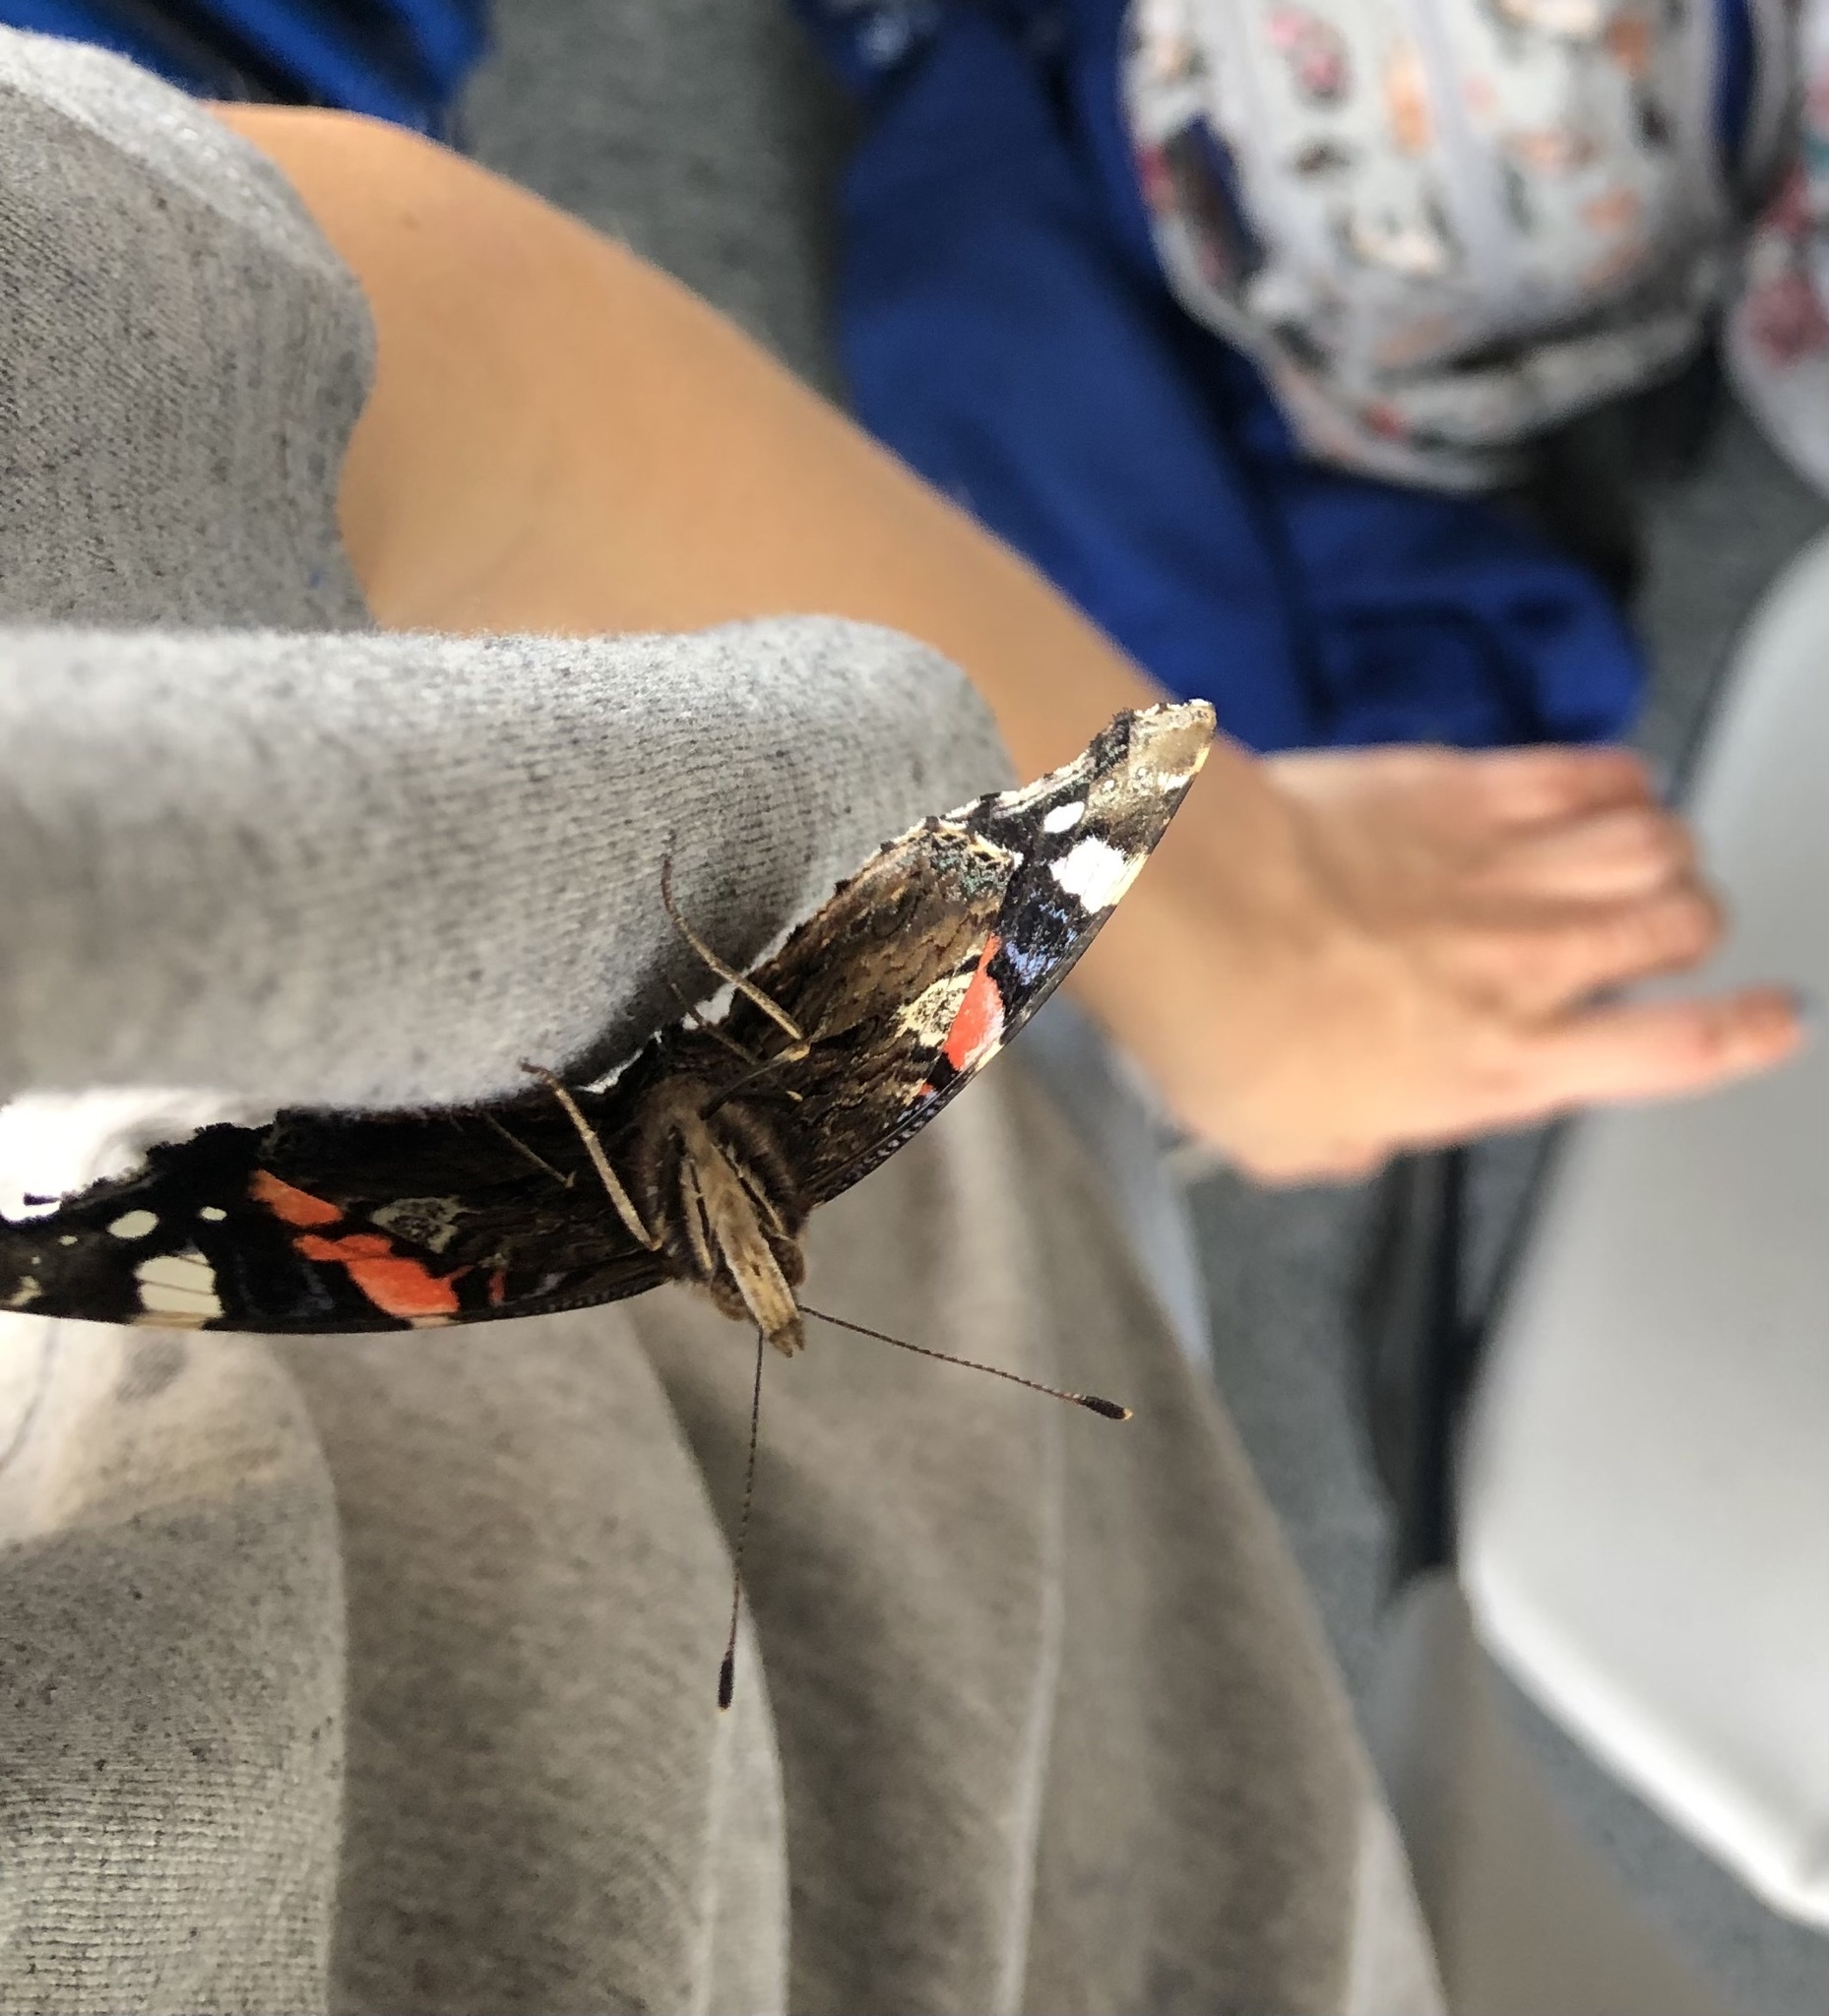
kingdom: Animalia
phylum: Arthropoda
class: Insecta
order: Lepidoptera
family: Nymphalidae
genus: Vanessa
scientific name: Vanessa atalanta
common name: Red admiral
